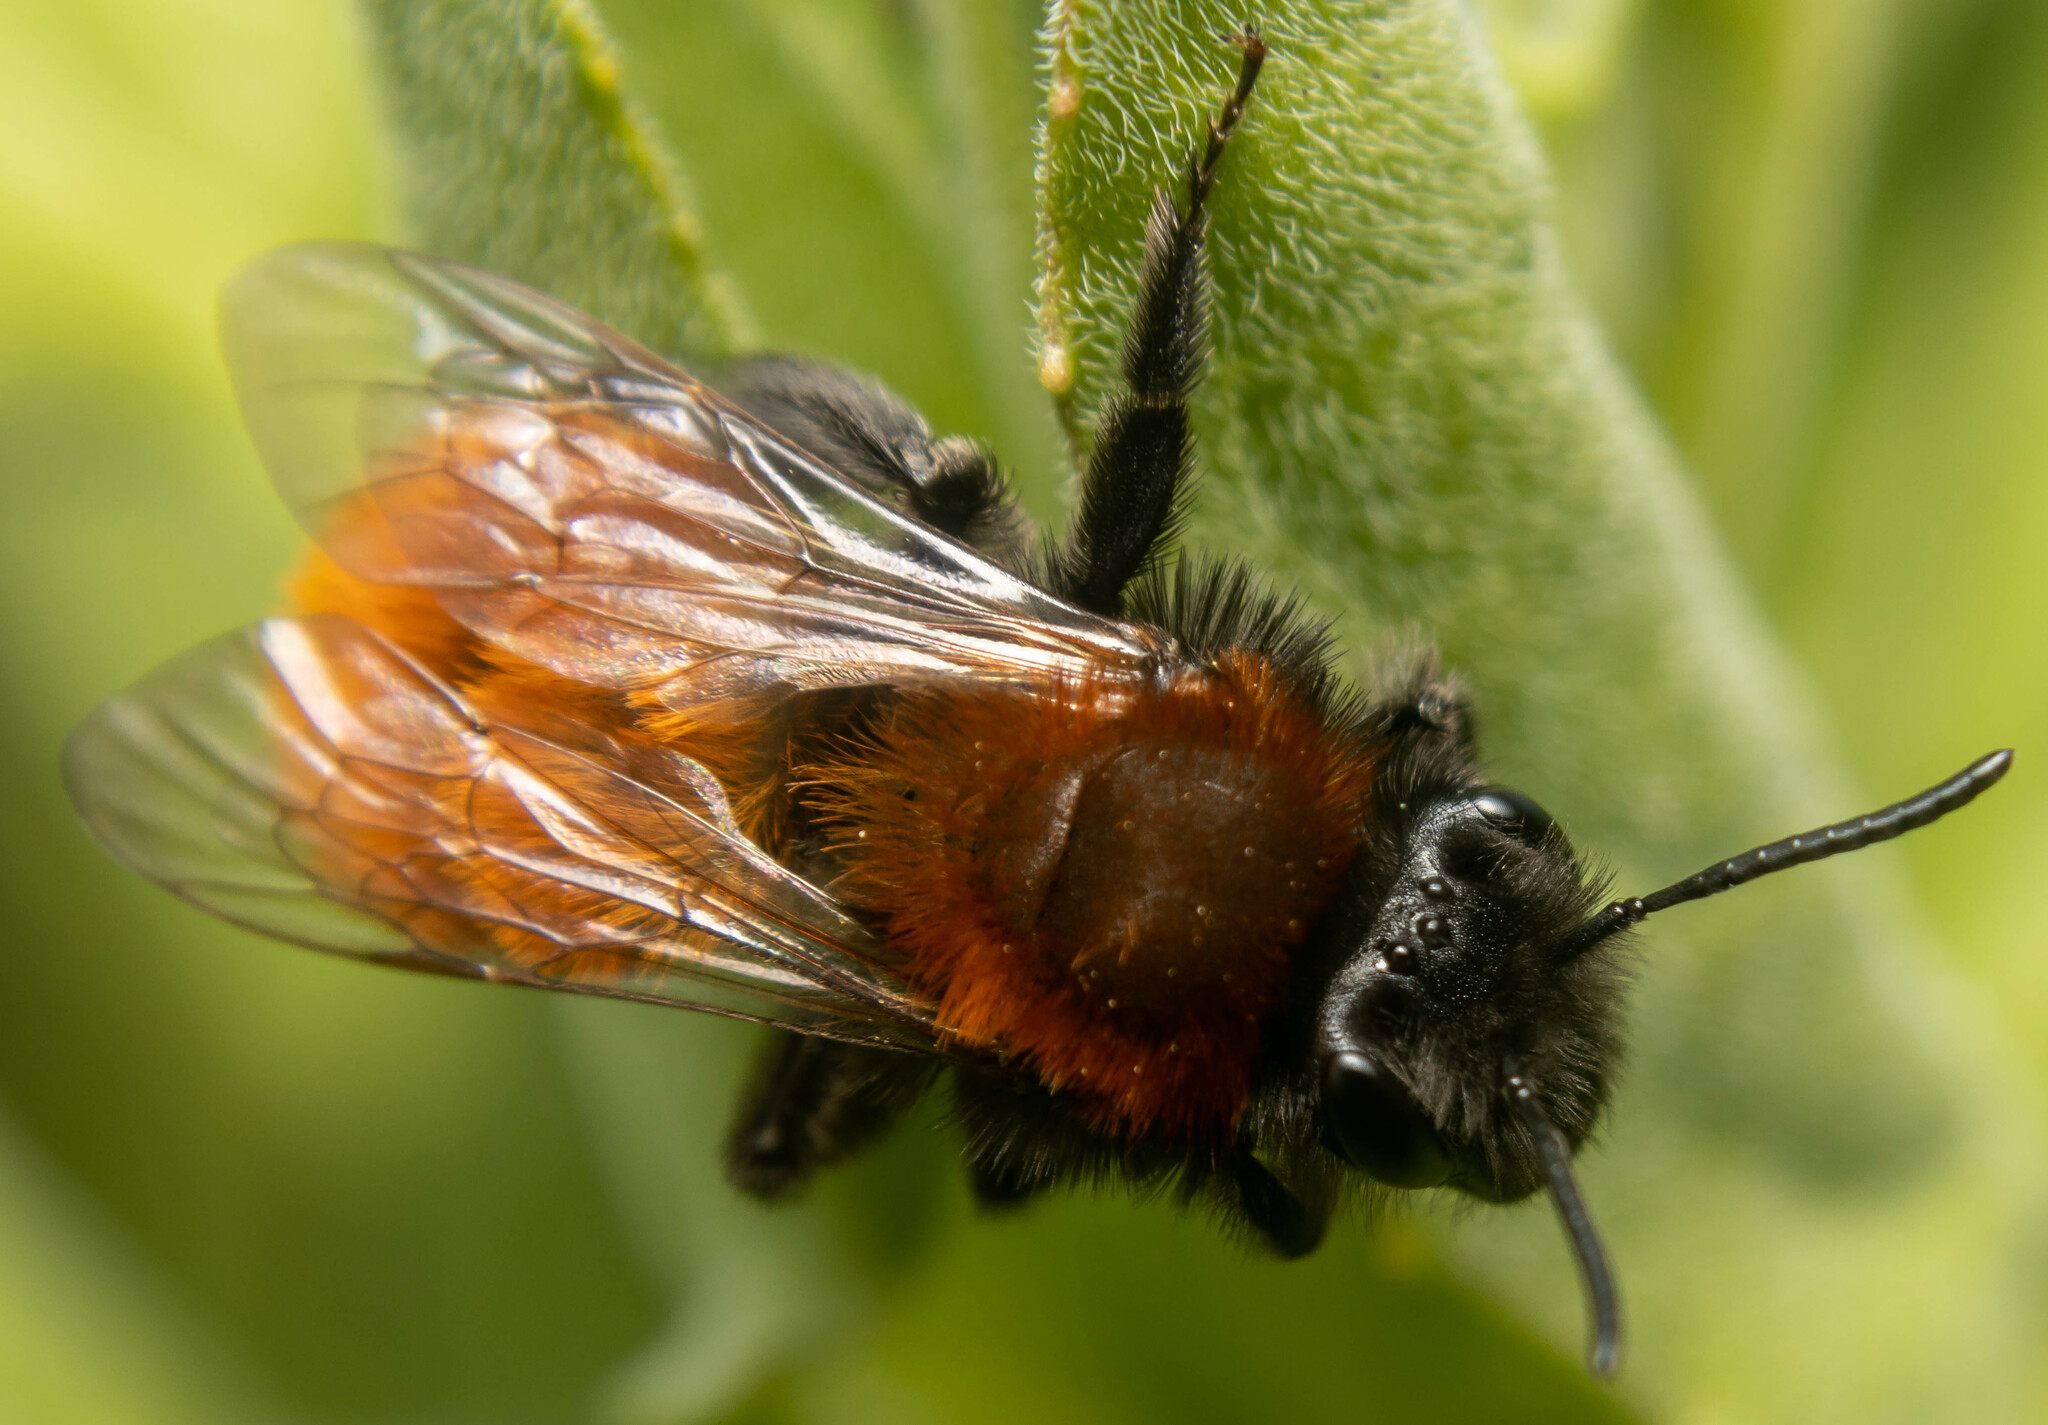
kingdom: Animalia
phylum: Arthropoda
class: Insecta
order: Hymenoptera
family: Andrenidae
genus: Andrena
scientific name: Andrena fulva
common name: Tawny mining bee
